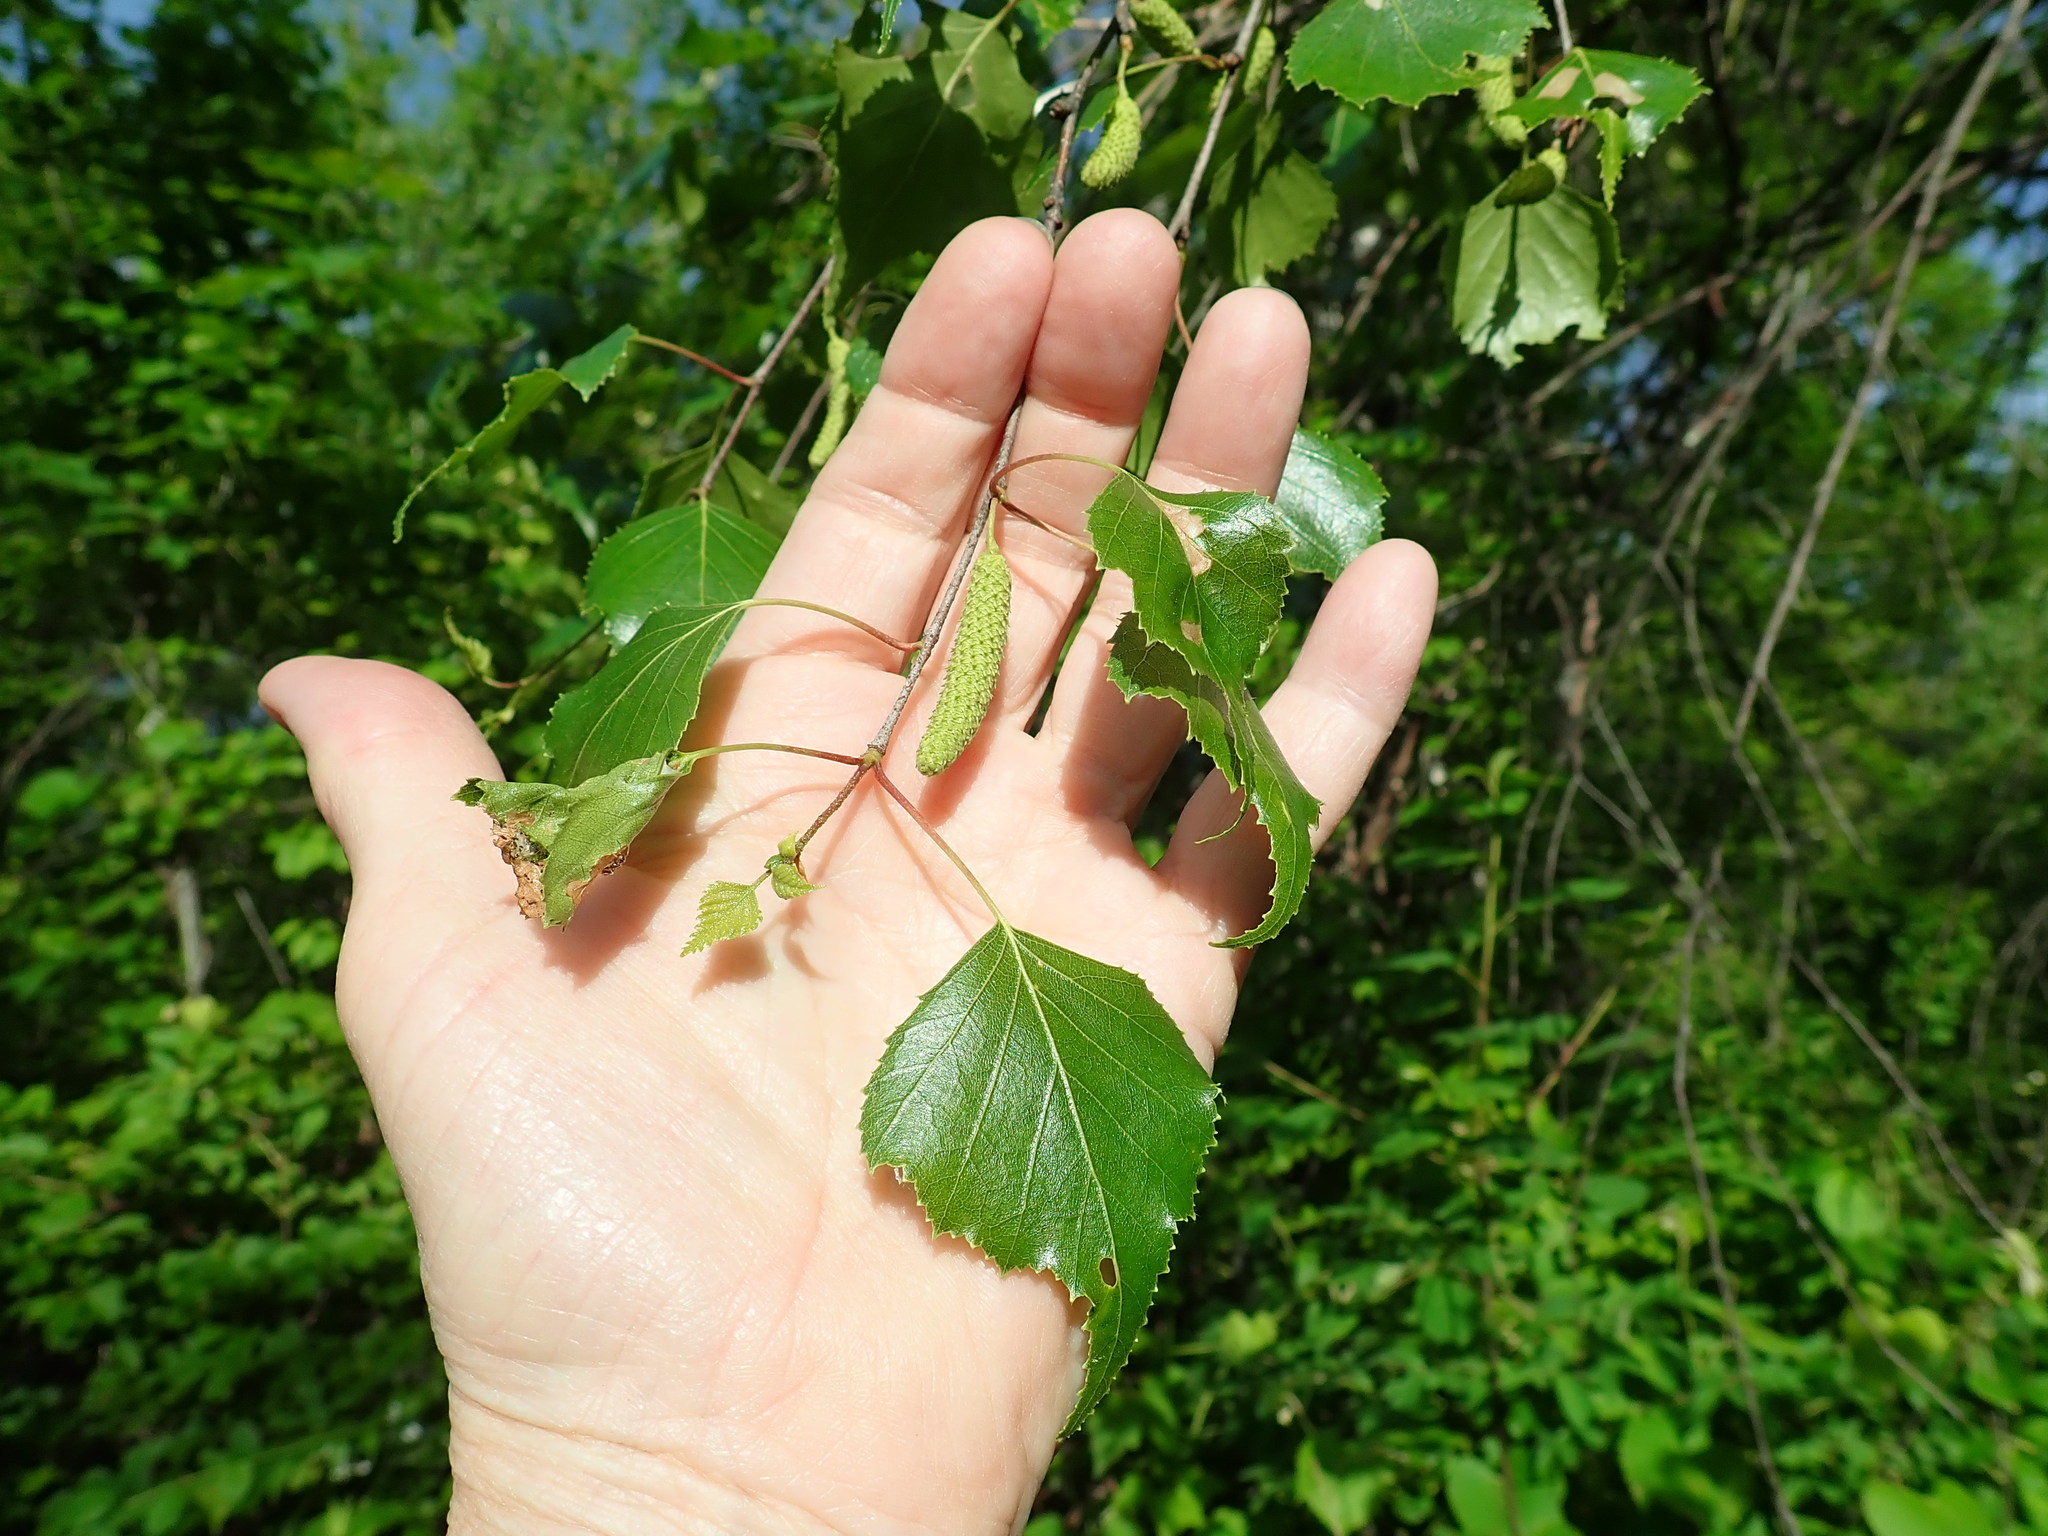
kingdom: Plantae
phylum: Tracheophyta
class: Magnoliopsida
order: Fagales
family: Betulaceae
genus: Betula
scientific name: Betula populifolia
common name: Fire birch
